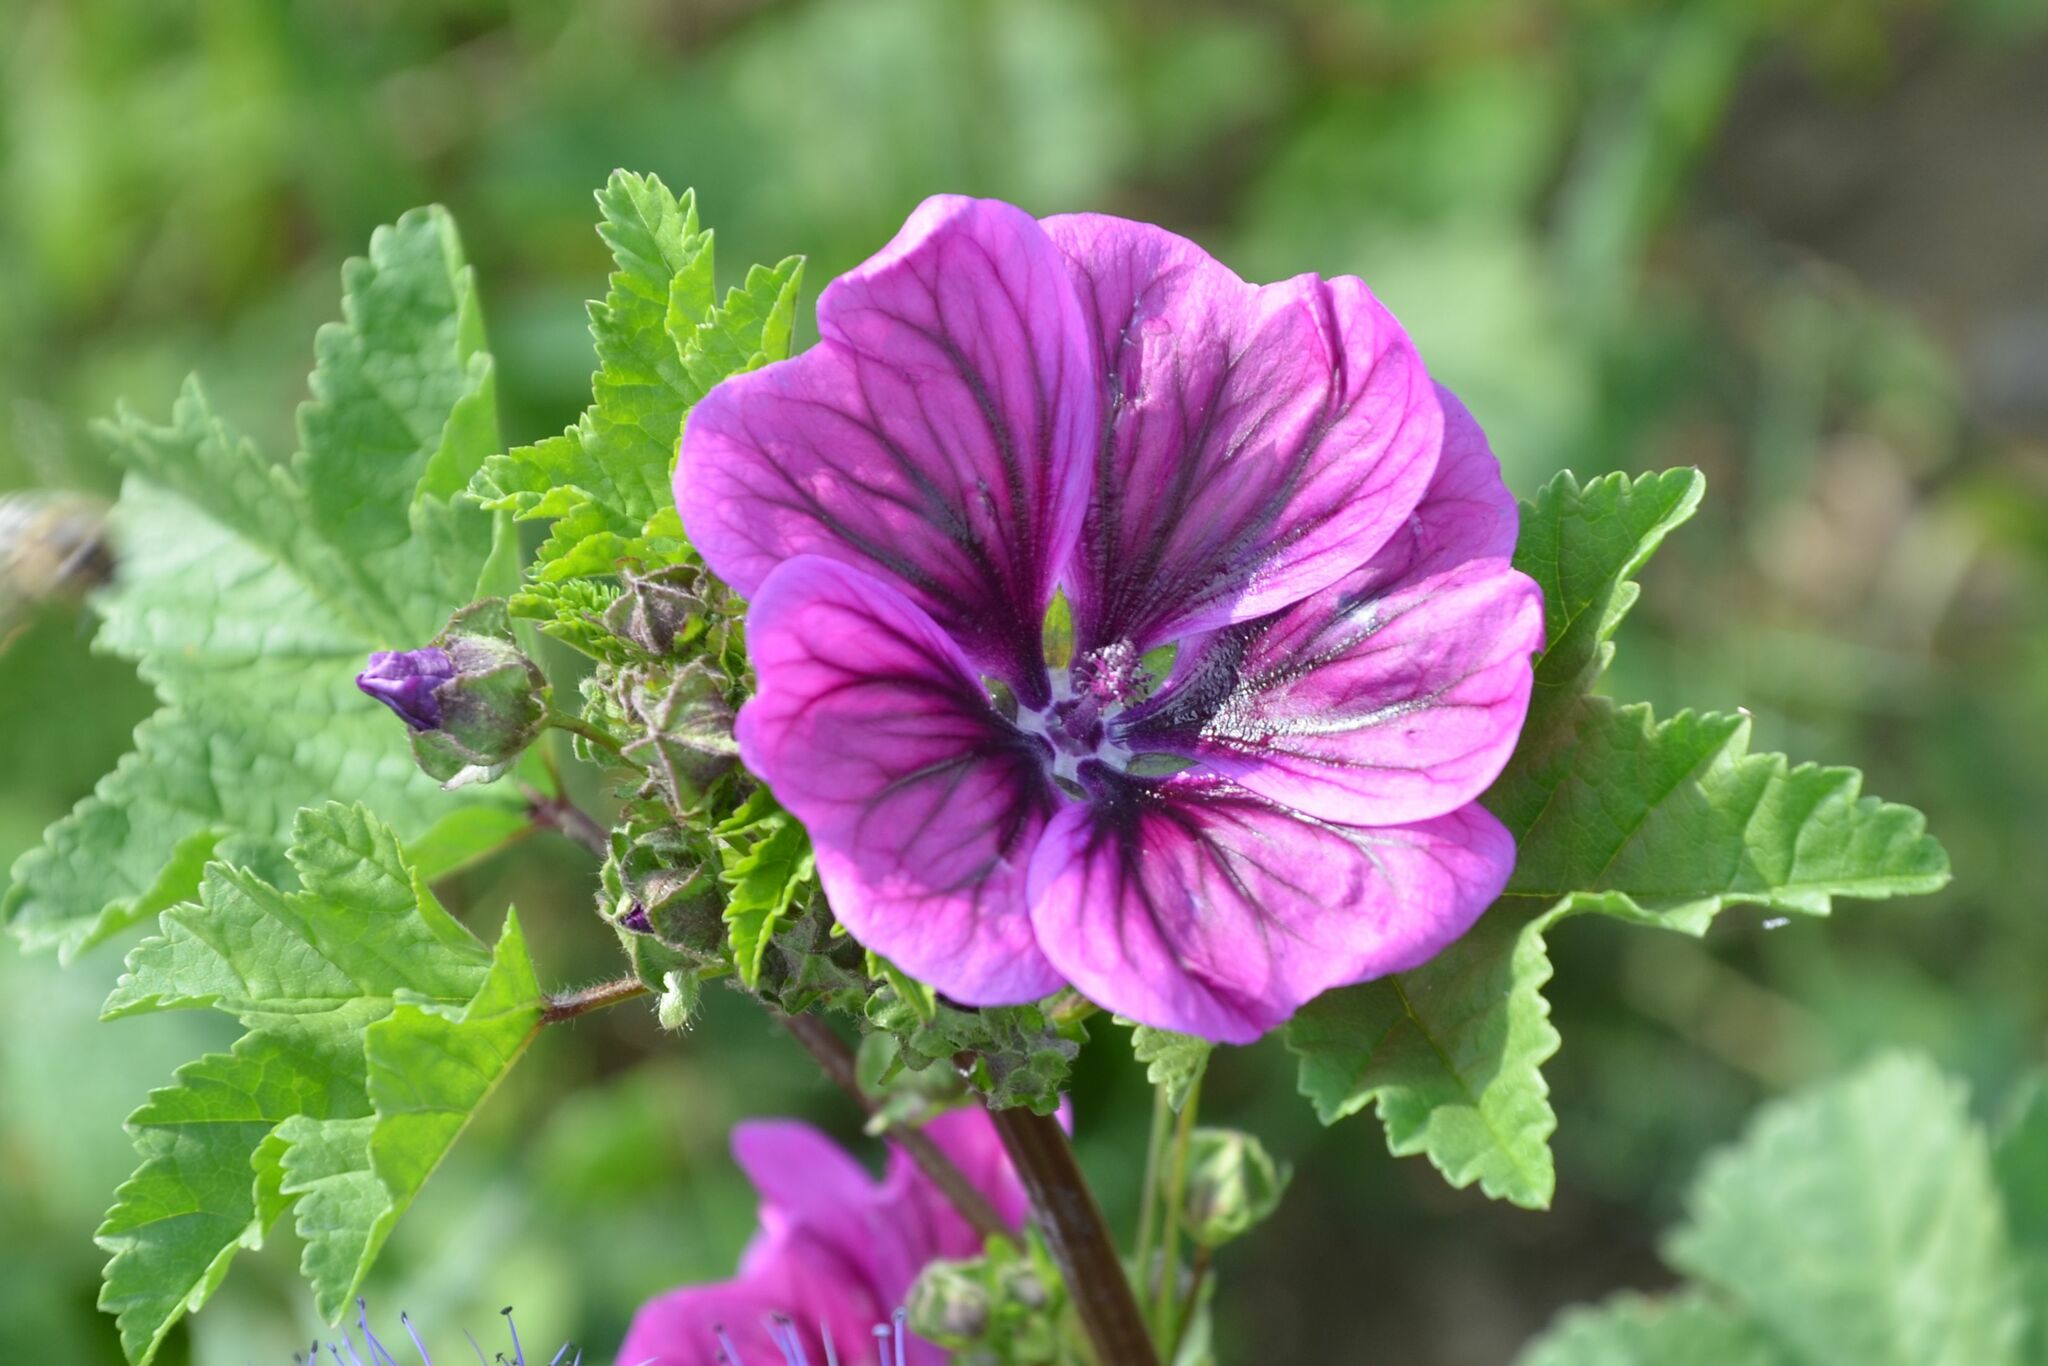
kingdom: Plantae
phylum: Tracheophyta
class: Magnoliopsida
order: Malvales
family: Malvaceae
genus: Malva
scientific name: Malva sylvestris
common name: Common mallow
